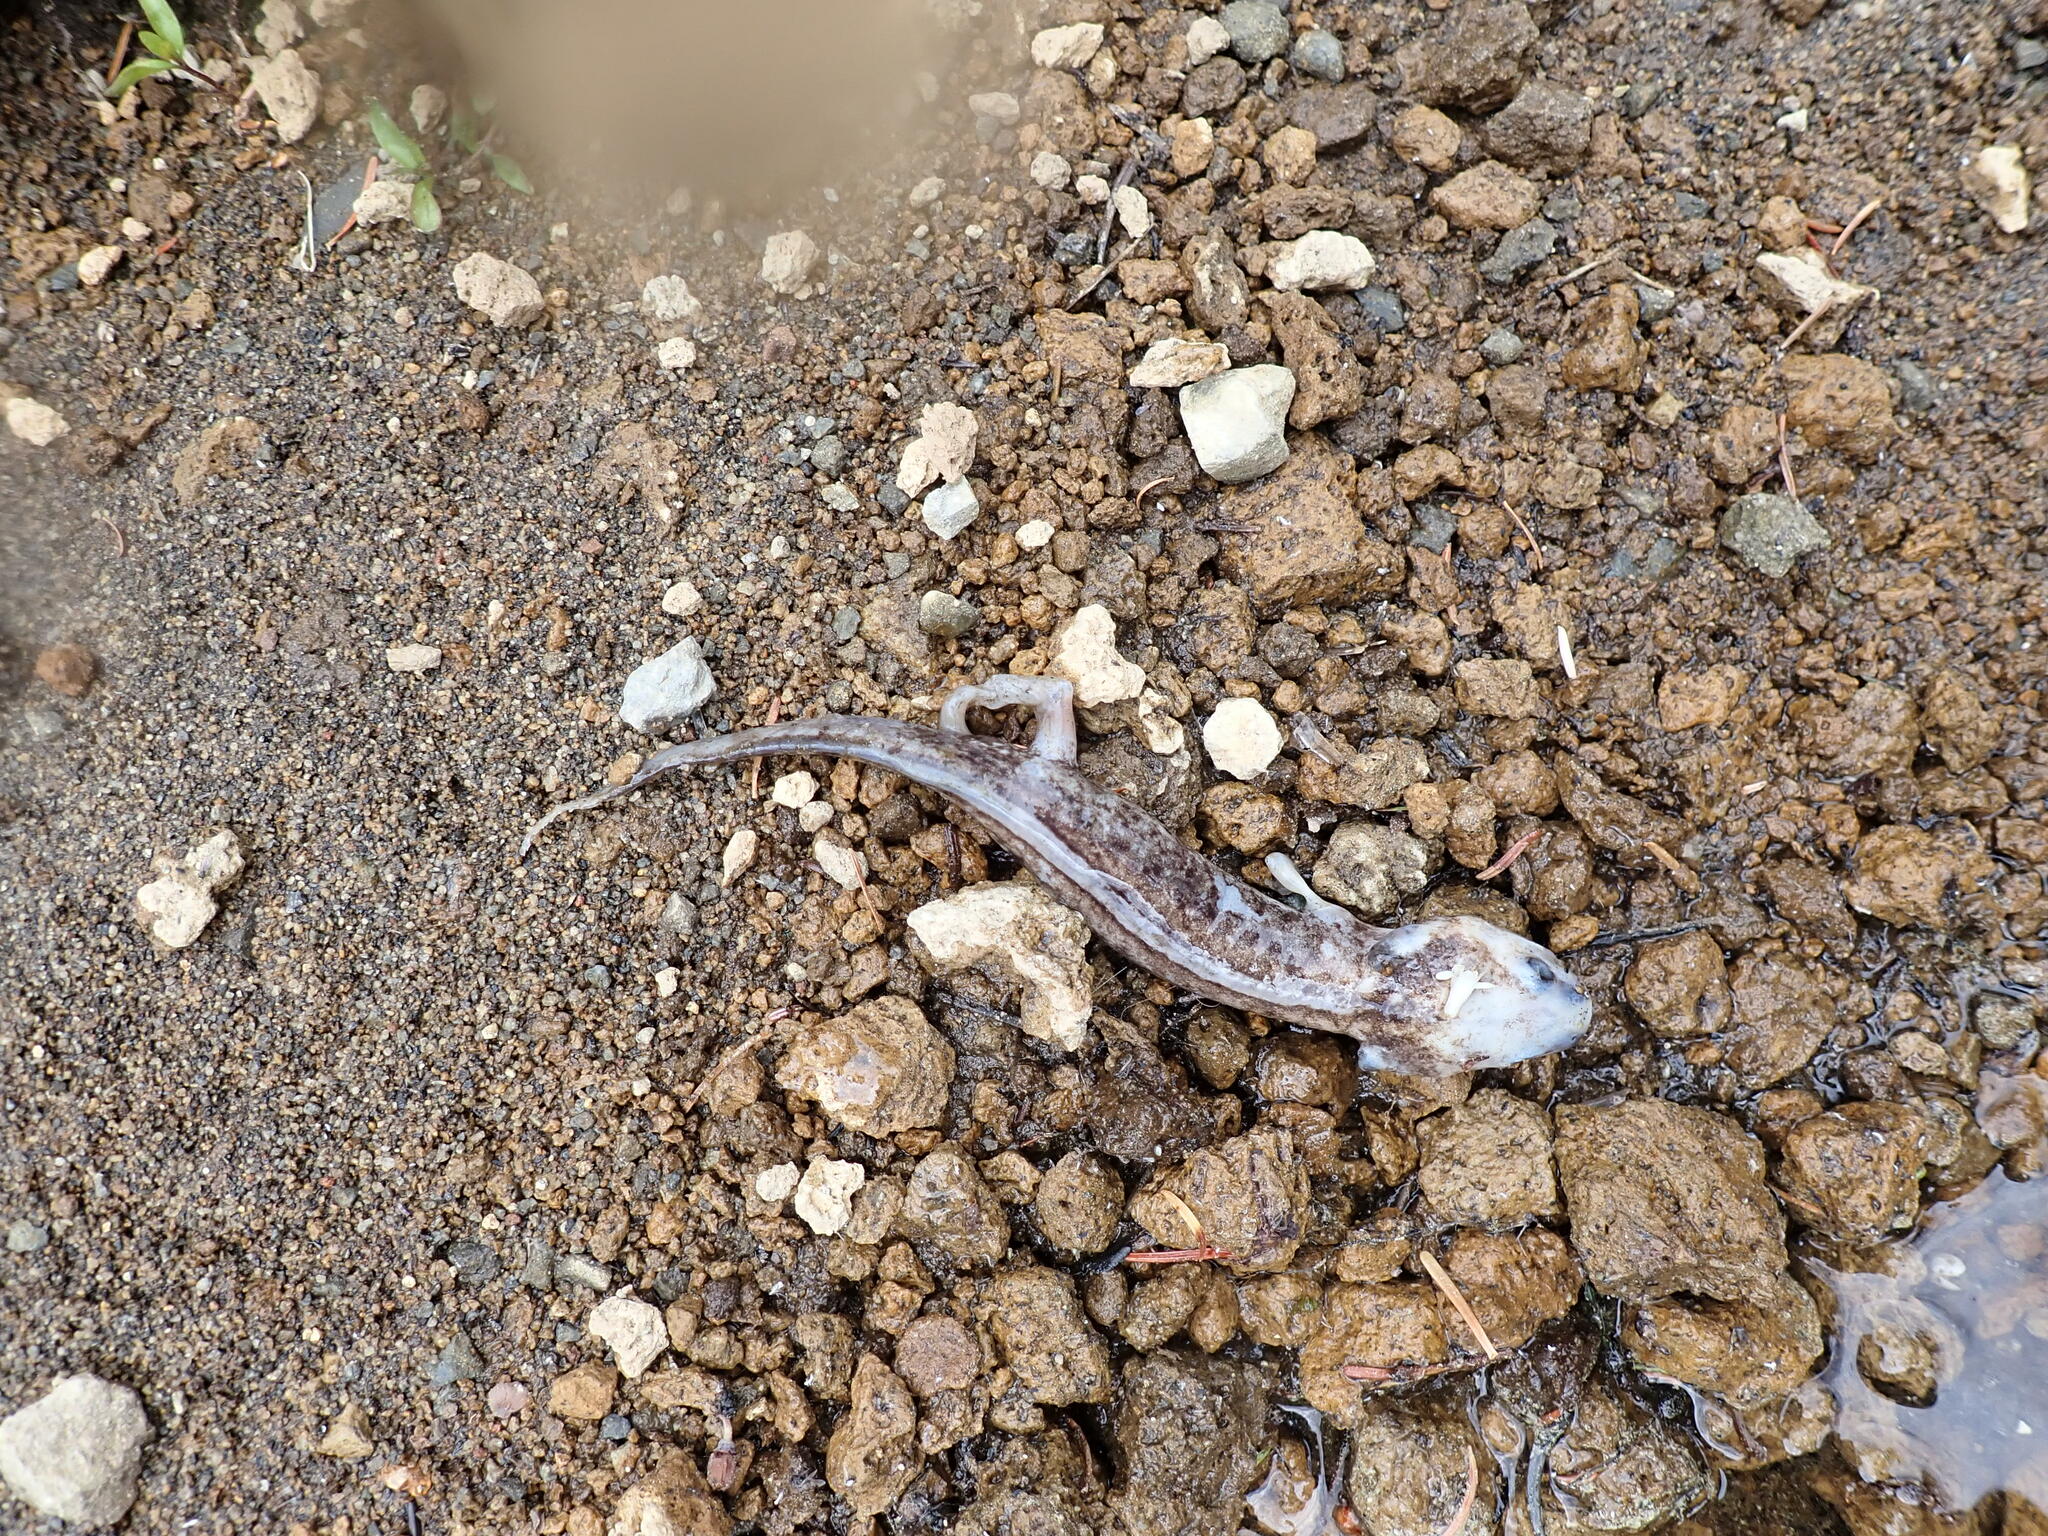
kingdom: Animalia
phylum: Chordata
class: Amphibia
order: Caudata
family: Ambystomatidae
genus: Ambystoma
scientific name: Ambystoma gracile
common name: Northwestern salamander
